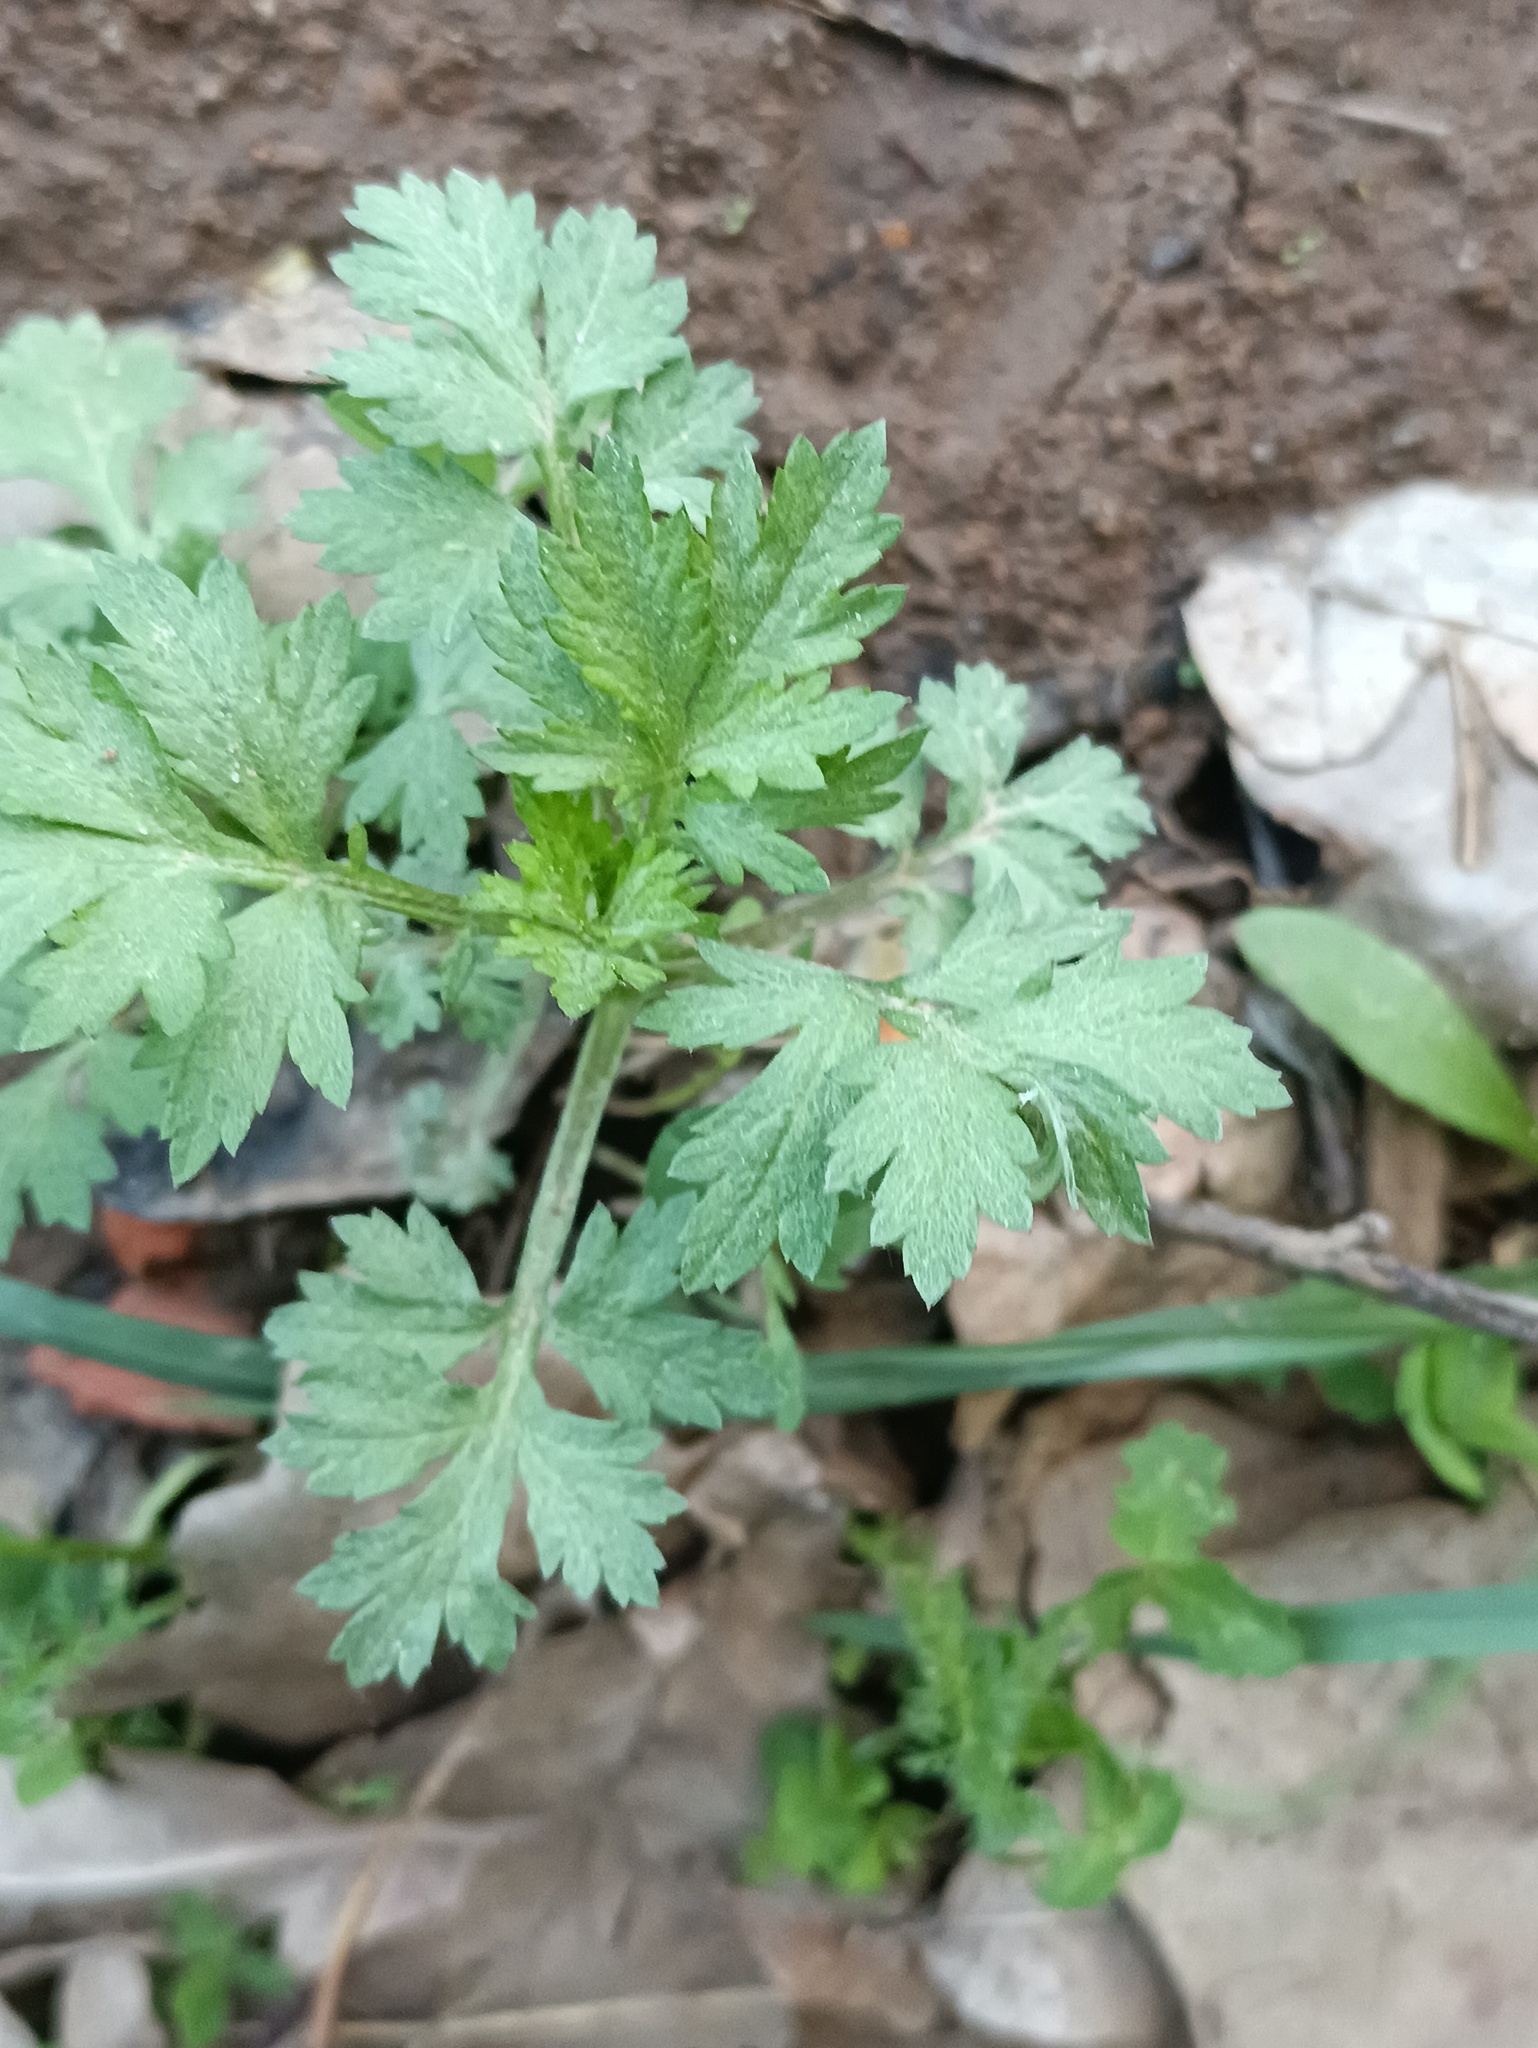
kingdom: Plantae
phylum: Tracheophyta
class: Magnoliopsida
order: Asterales
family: Asteraceae
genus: Artemisia
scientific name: Artemisia vulgaris
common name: Mugwort
